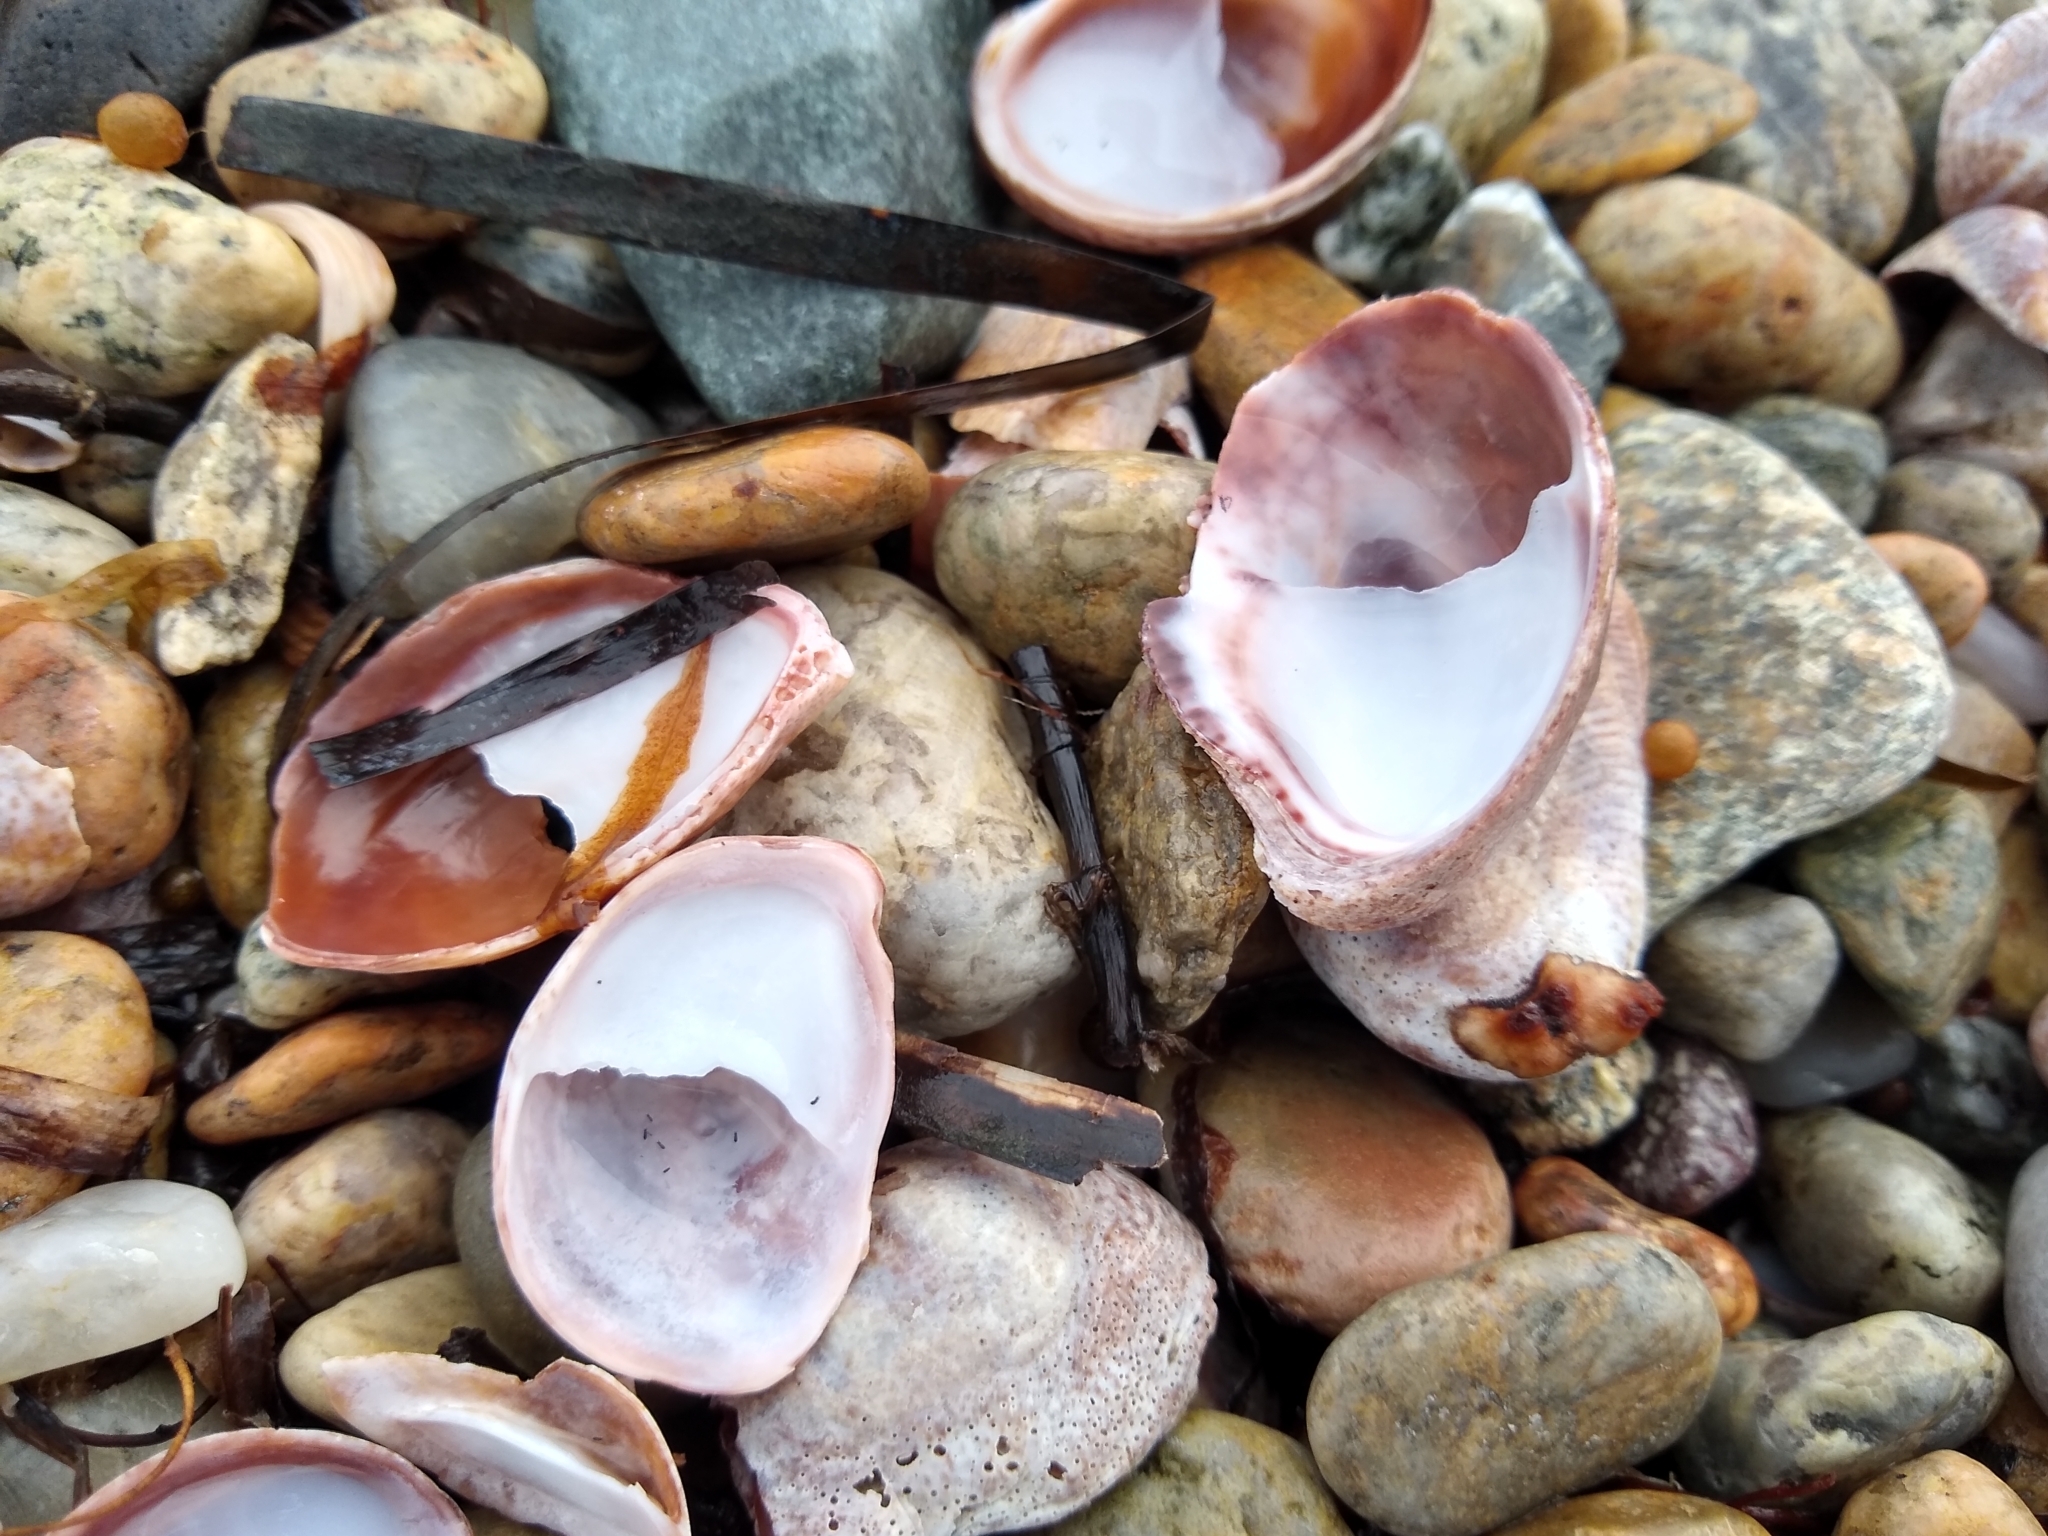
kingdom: Animalia
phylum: Mollusca
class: Gastropoda
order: Littorinimorpha
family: Calyptraeidae
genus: Crepidula
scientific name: Crepidula fornicata
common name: Slipper limpet
